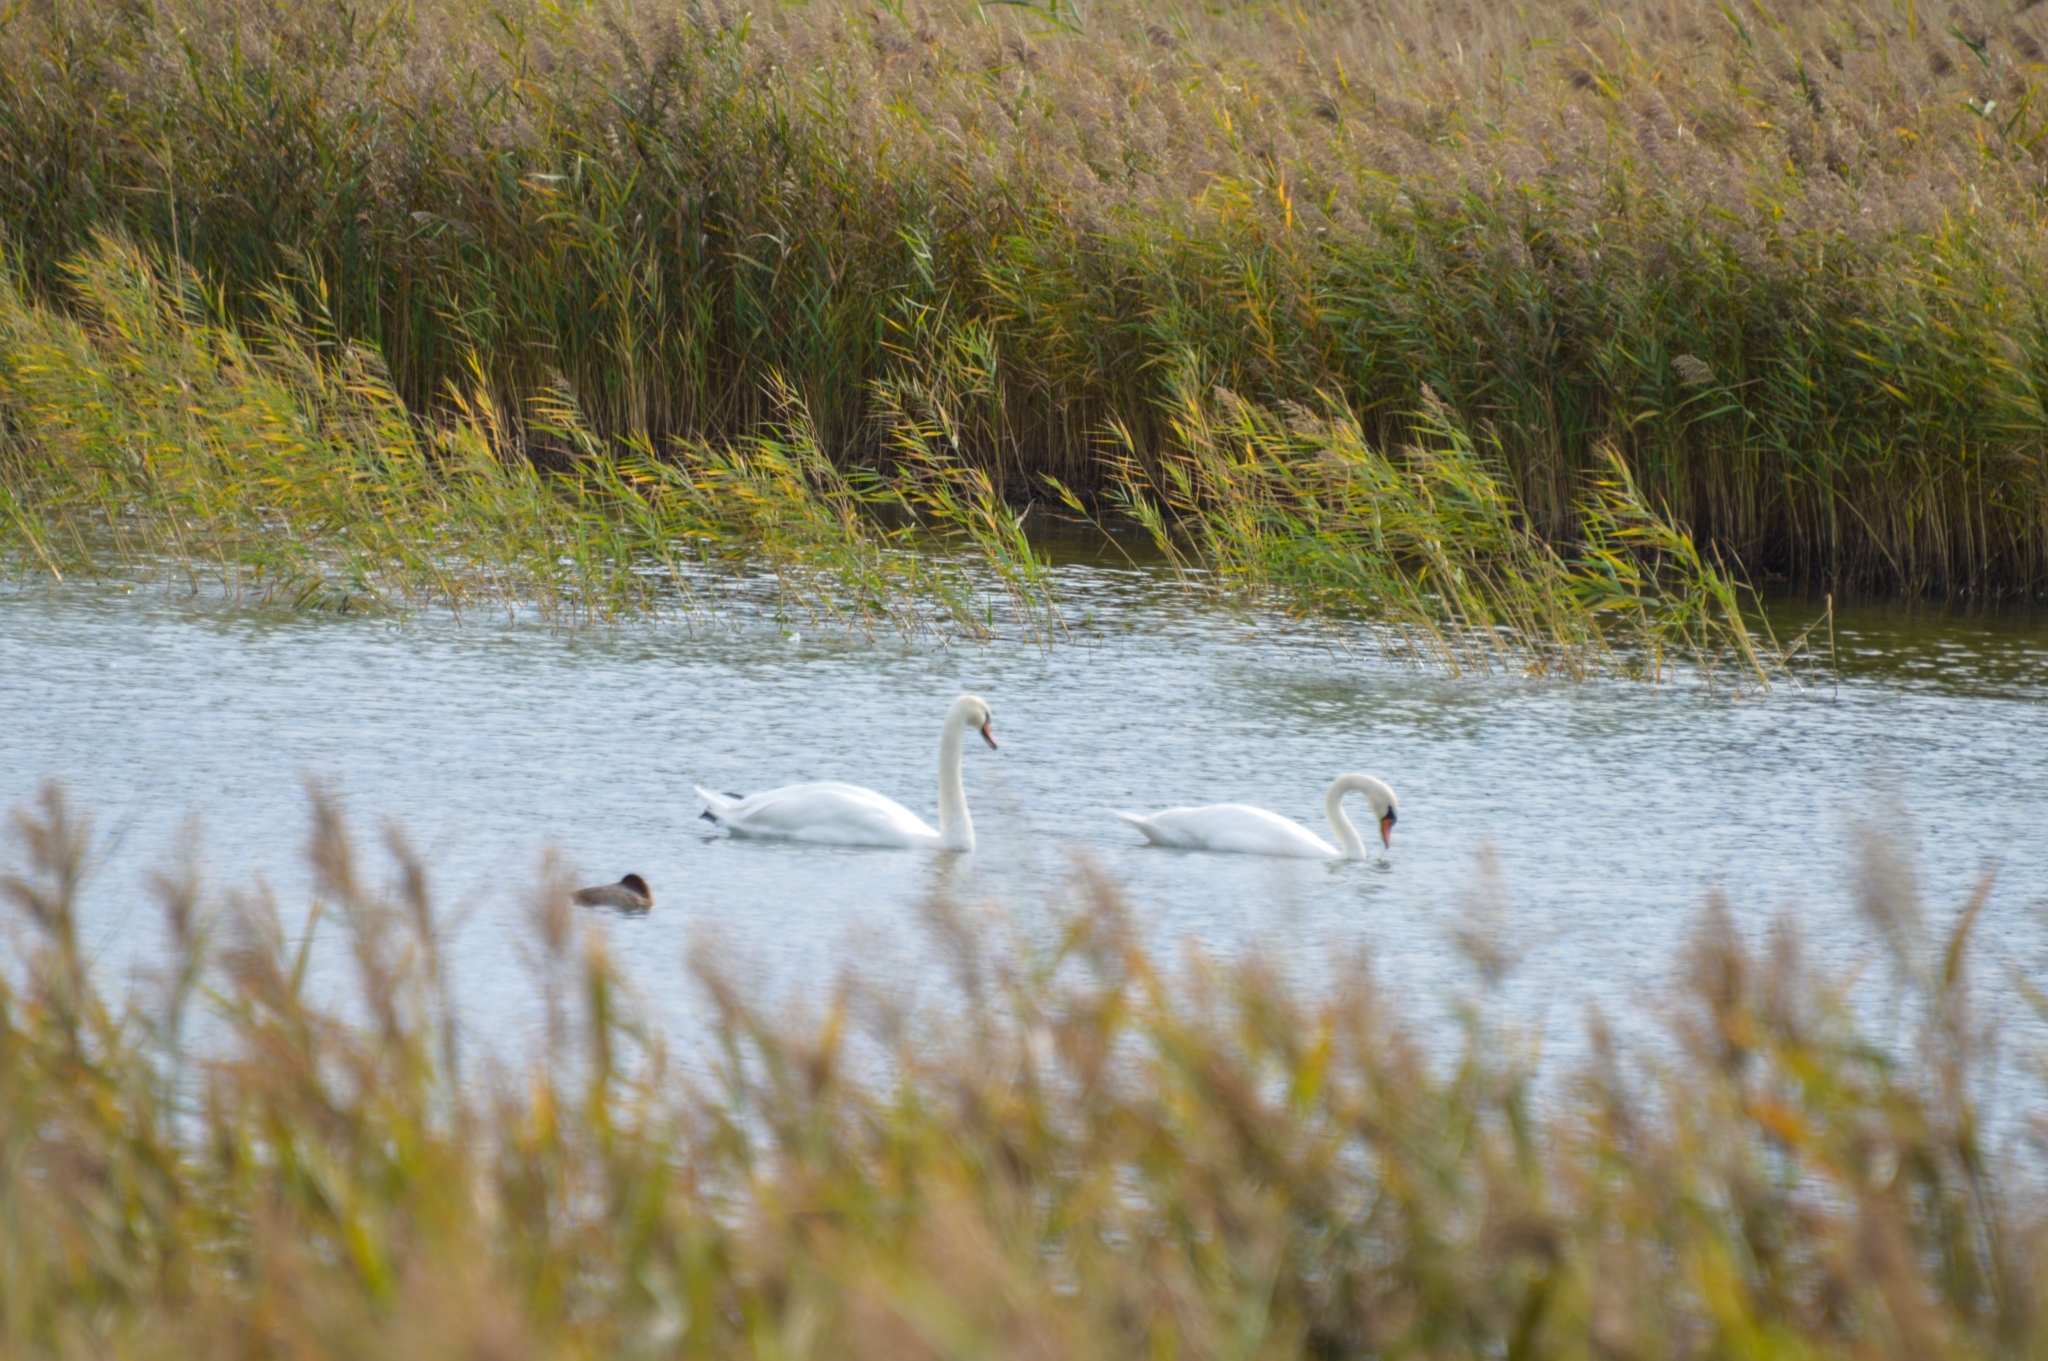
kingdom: Animalia
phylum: Chordata
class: Aves
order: Anseriformes
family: Anatidae
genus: Cygnus
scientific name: Cygnus olor
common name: Mute swan
